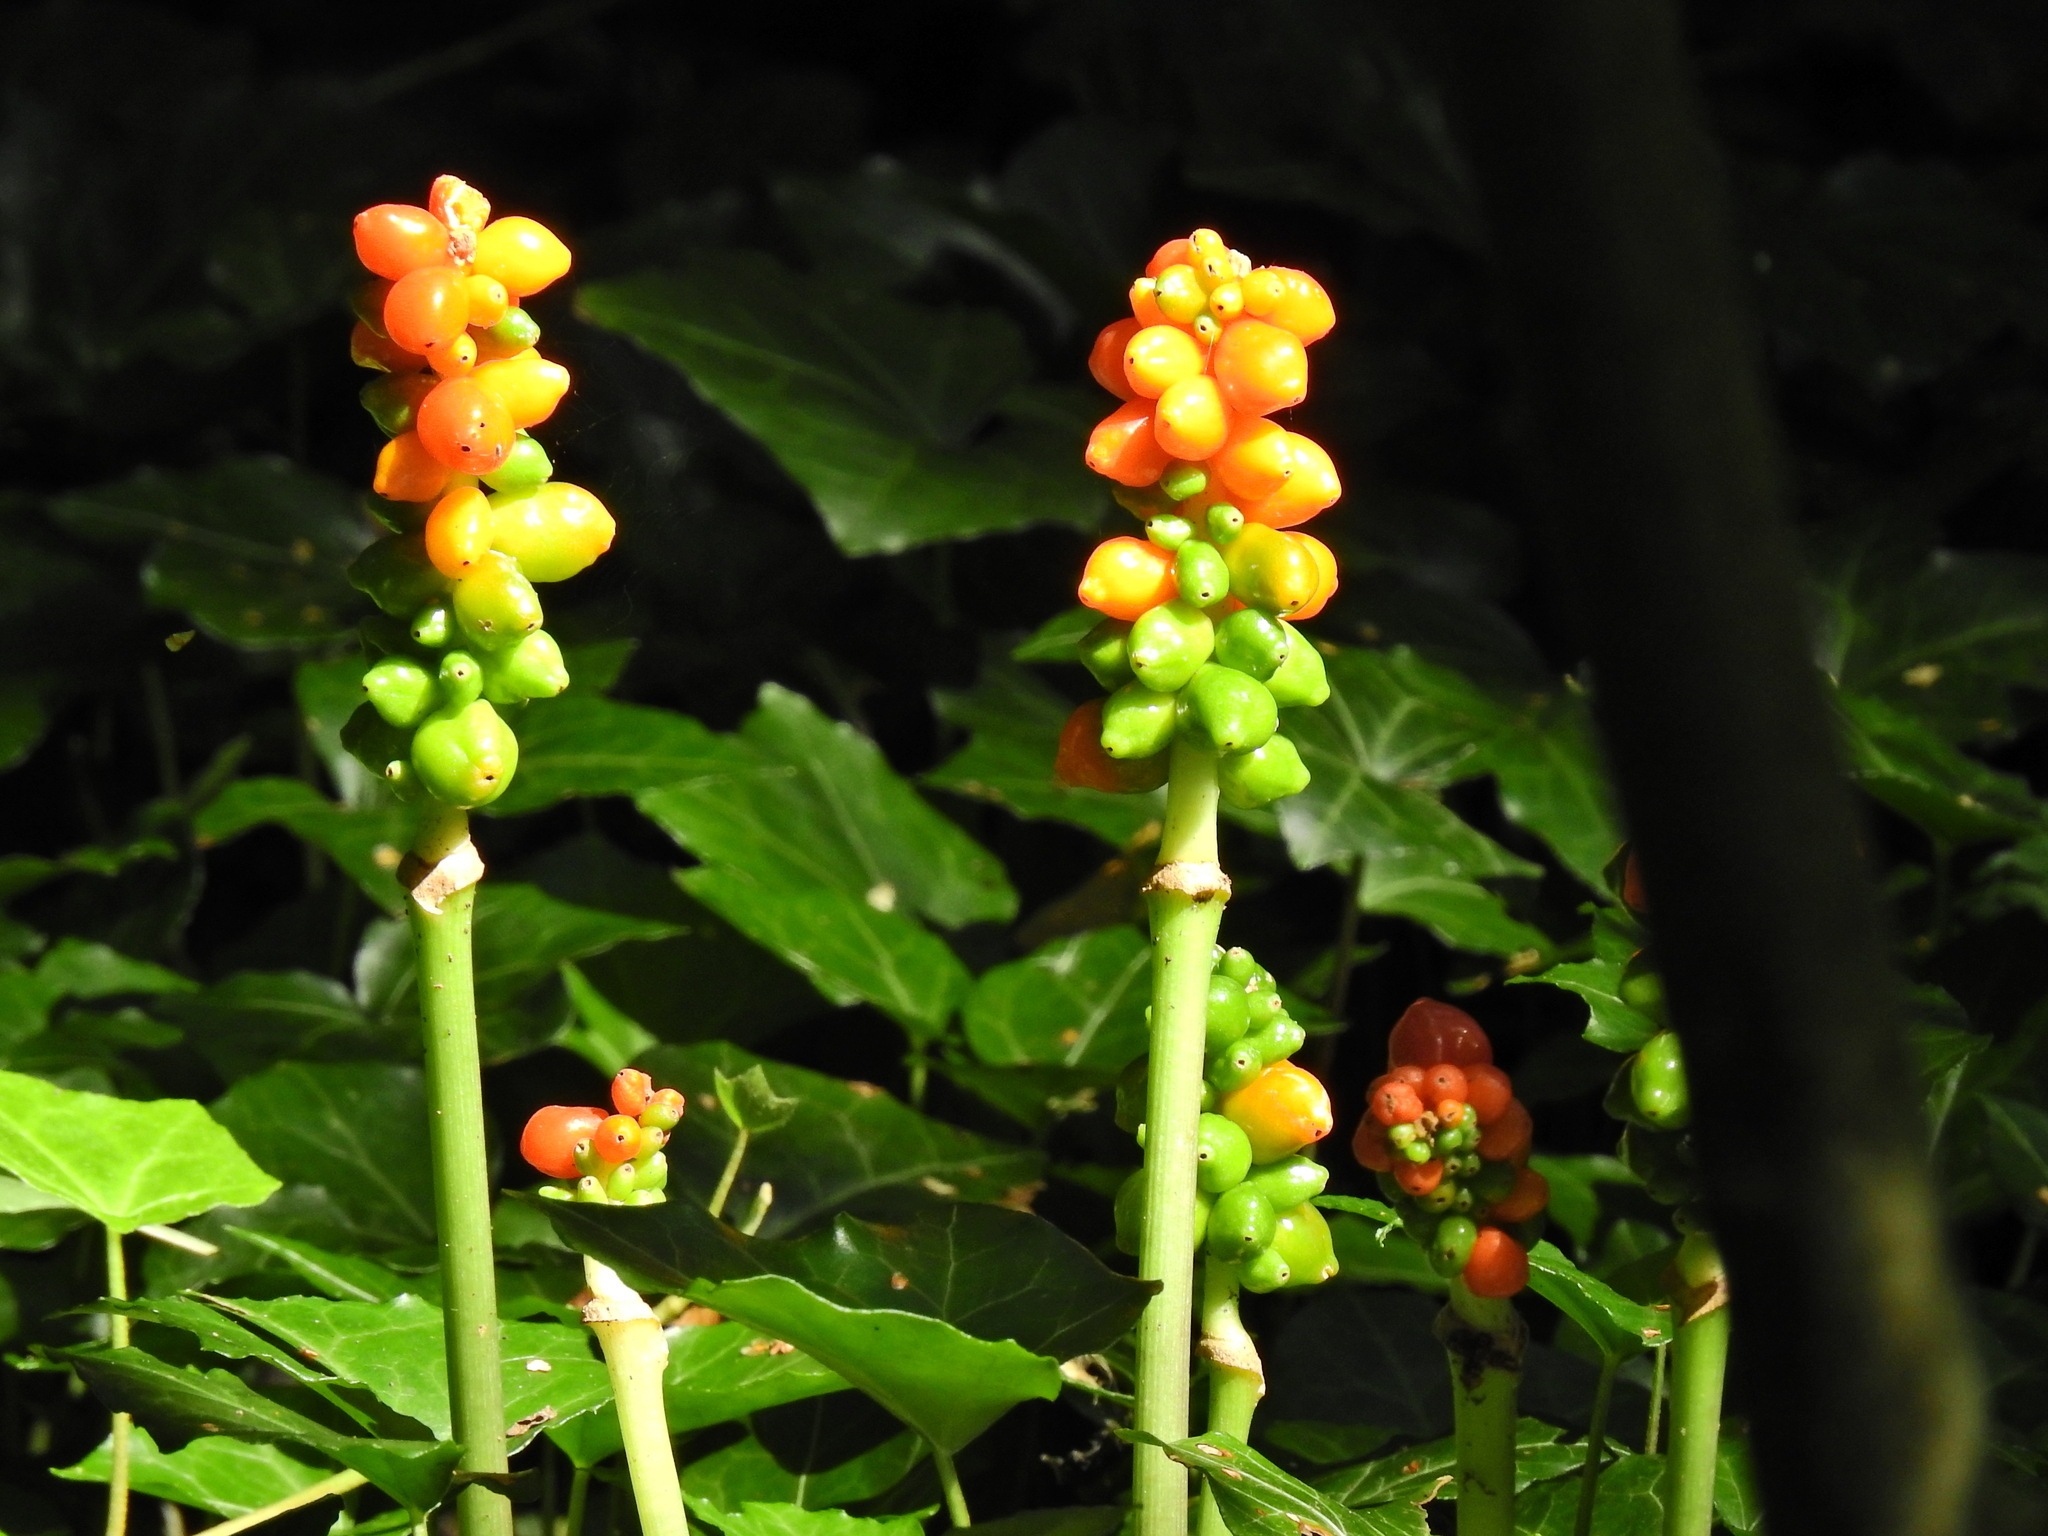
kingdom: Plantae
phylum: Tracheophyta
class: Liliopsida
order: Alismatales
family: Araceae
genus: Arum
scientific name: Arum maculatum
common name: Lords-and-ladies
